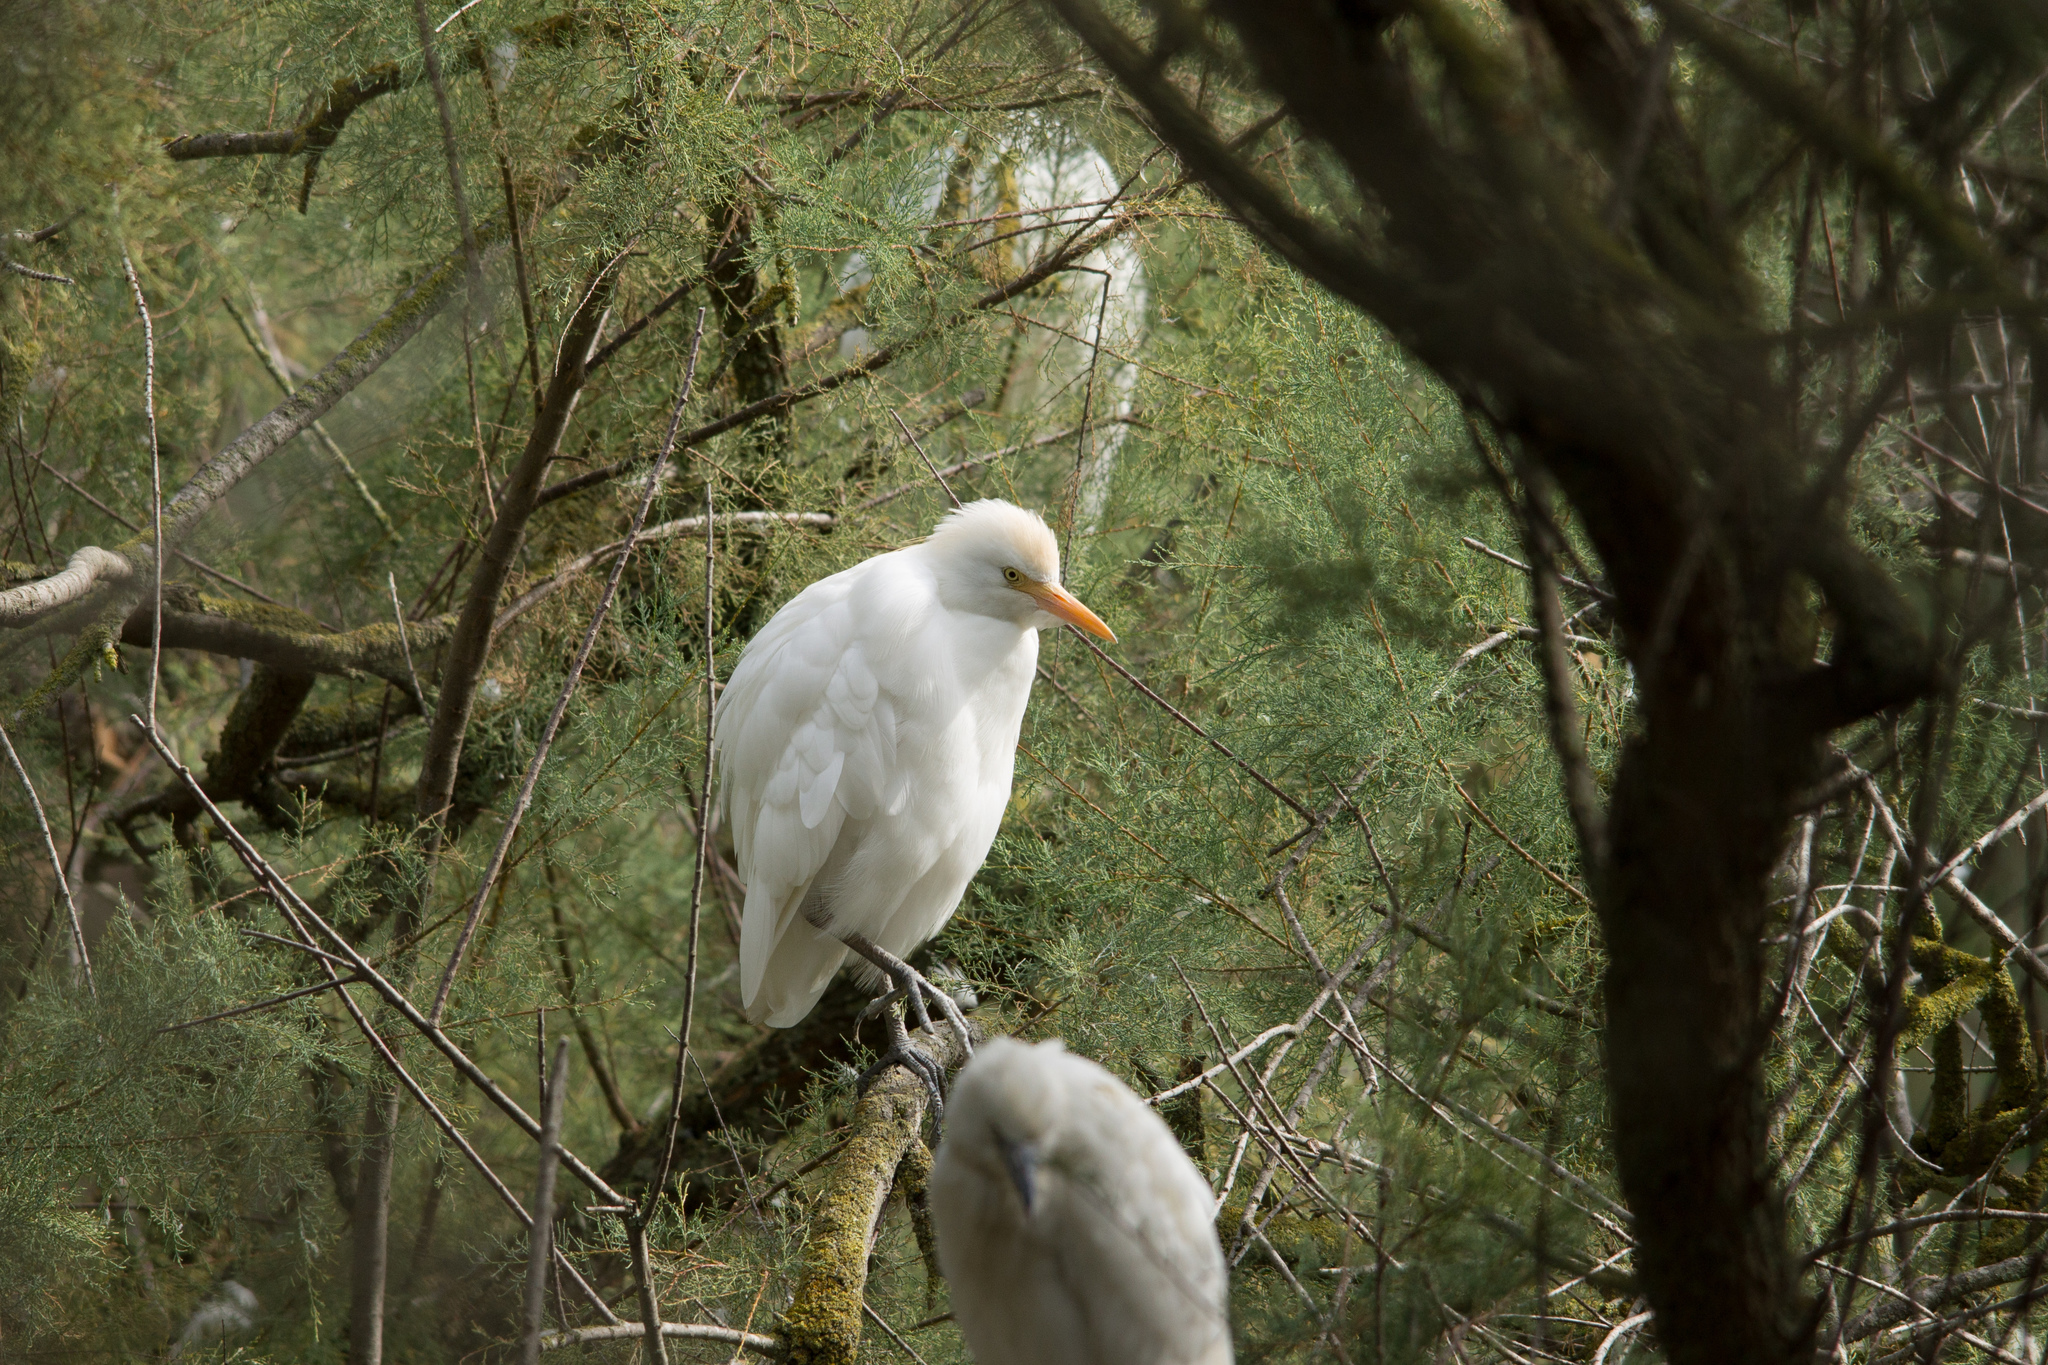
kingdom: Animalia
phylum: Chordata
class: Aves
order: Pelecaniformes
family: Ardeidae
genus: Bubulcus
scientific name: Bubulcus ibis
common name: Cattle egret
